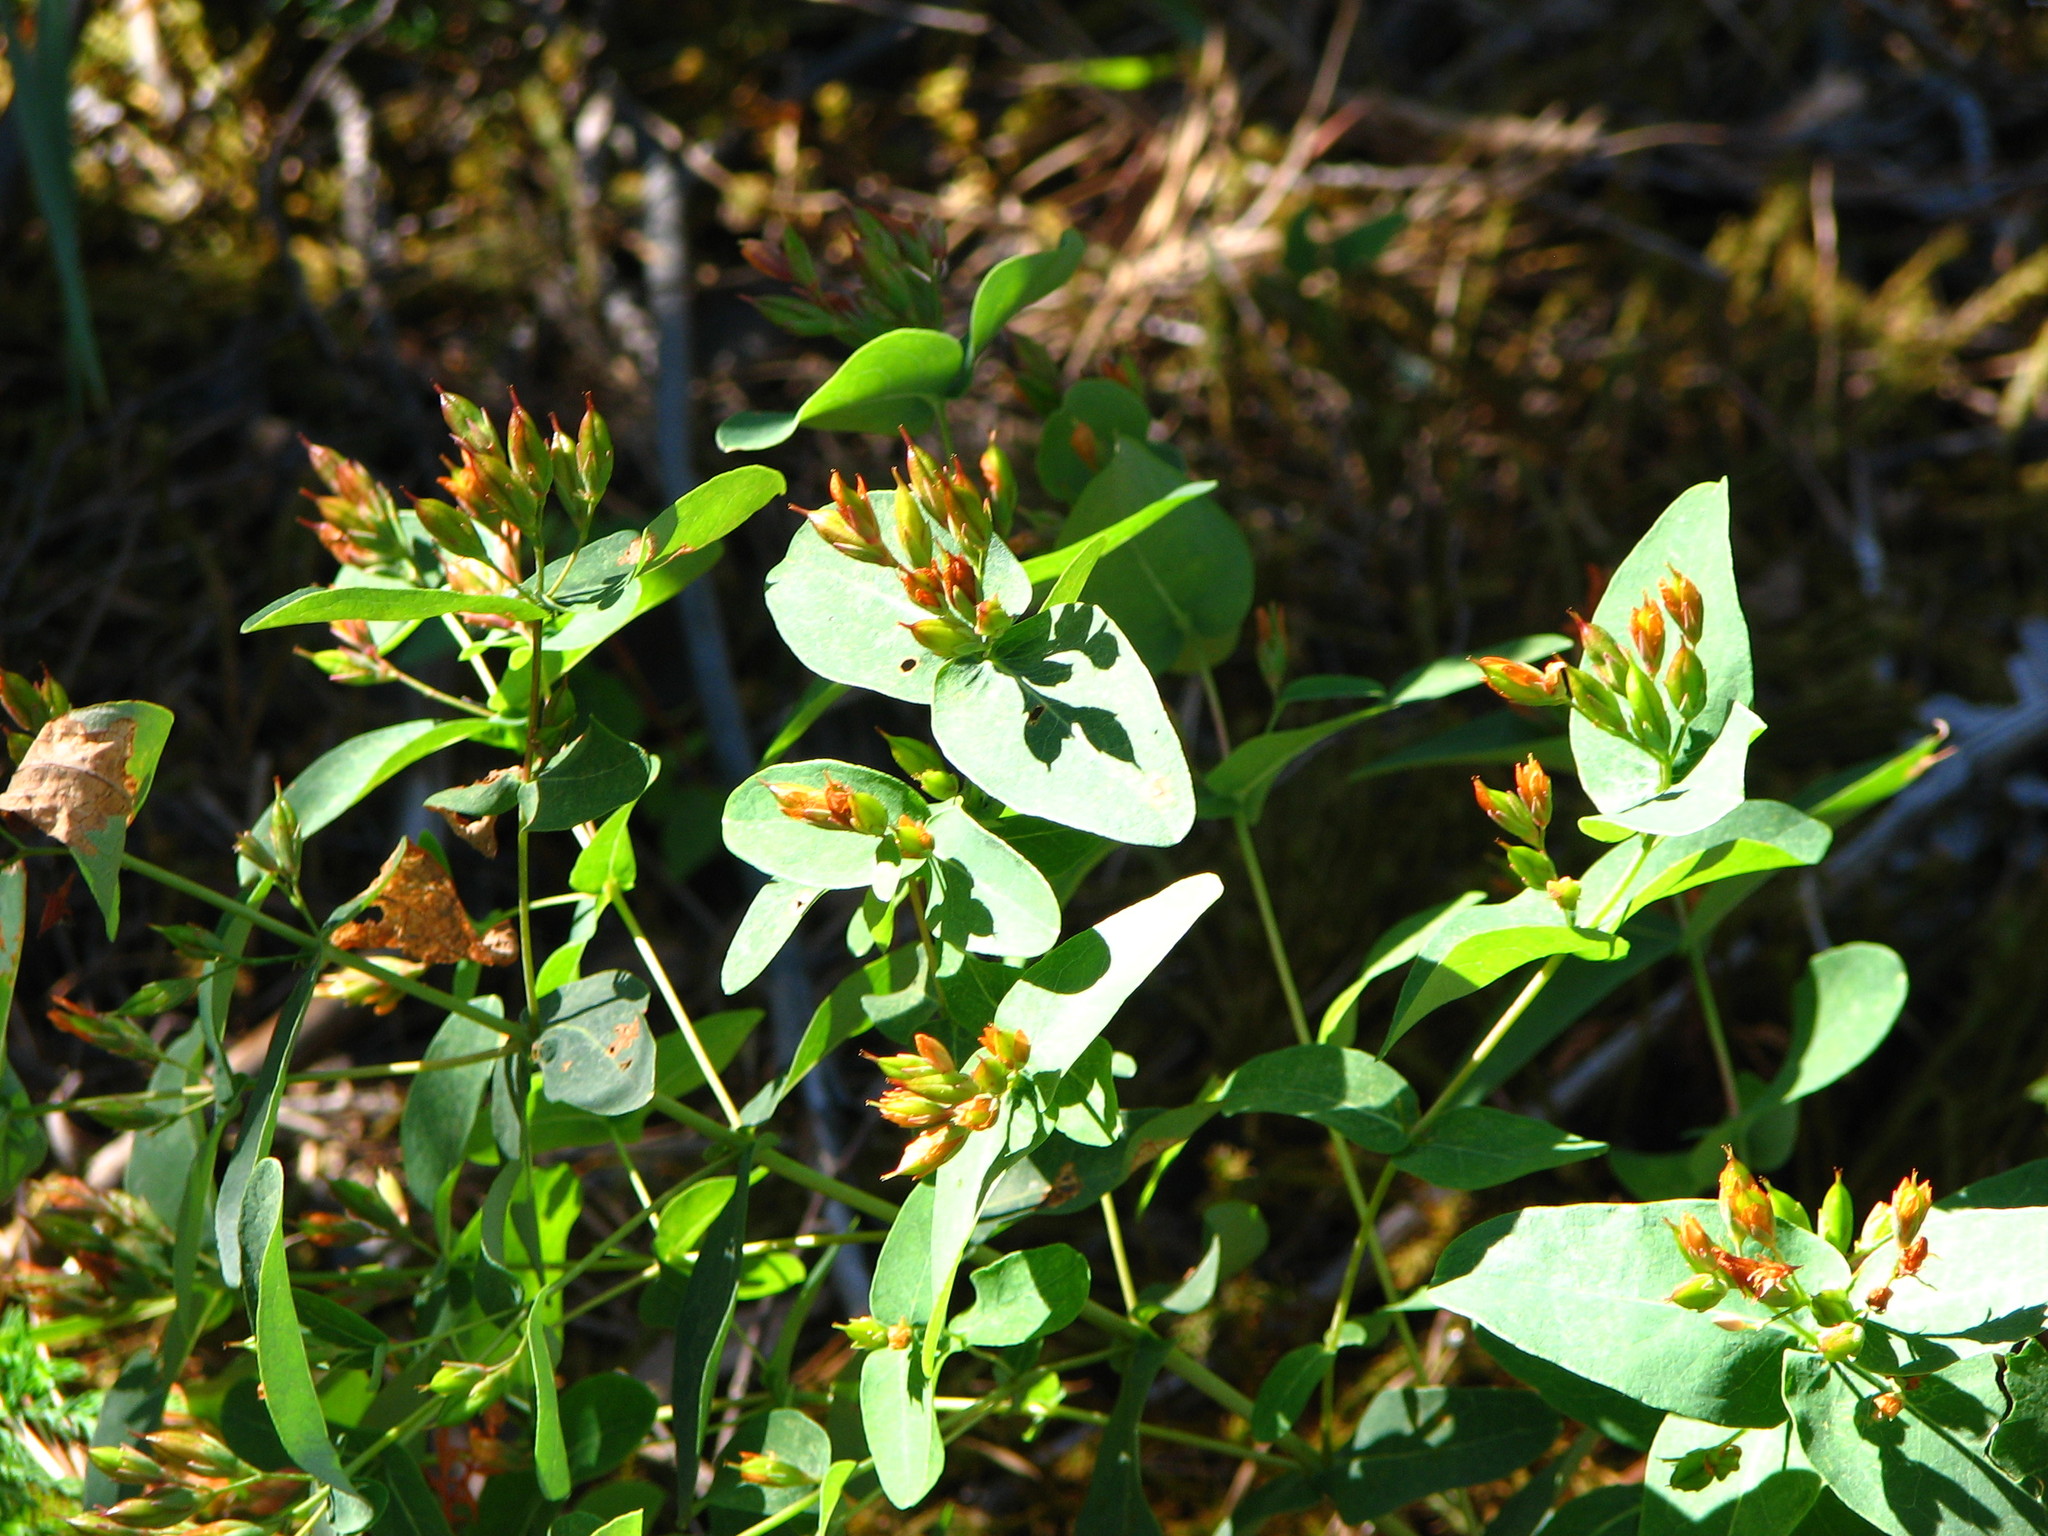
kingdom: Plantae
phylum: Tracheophyta
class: Magnoliopsida
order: Malpighiales
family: Hypericaceae
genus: Triadenum
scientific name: Triadenum virginicum
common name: Marsh st. john's-wort
